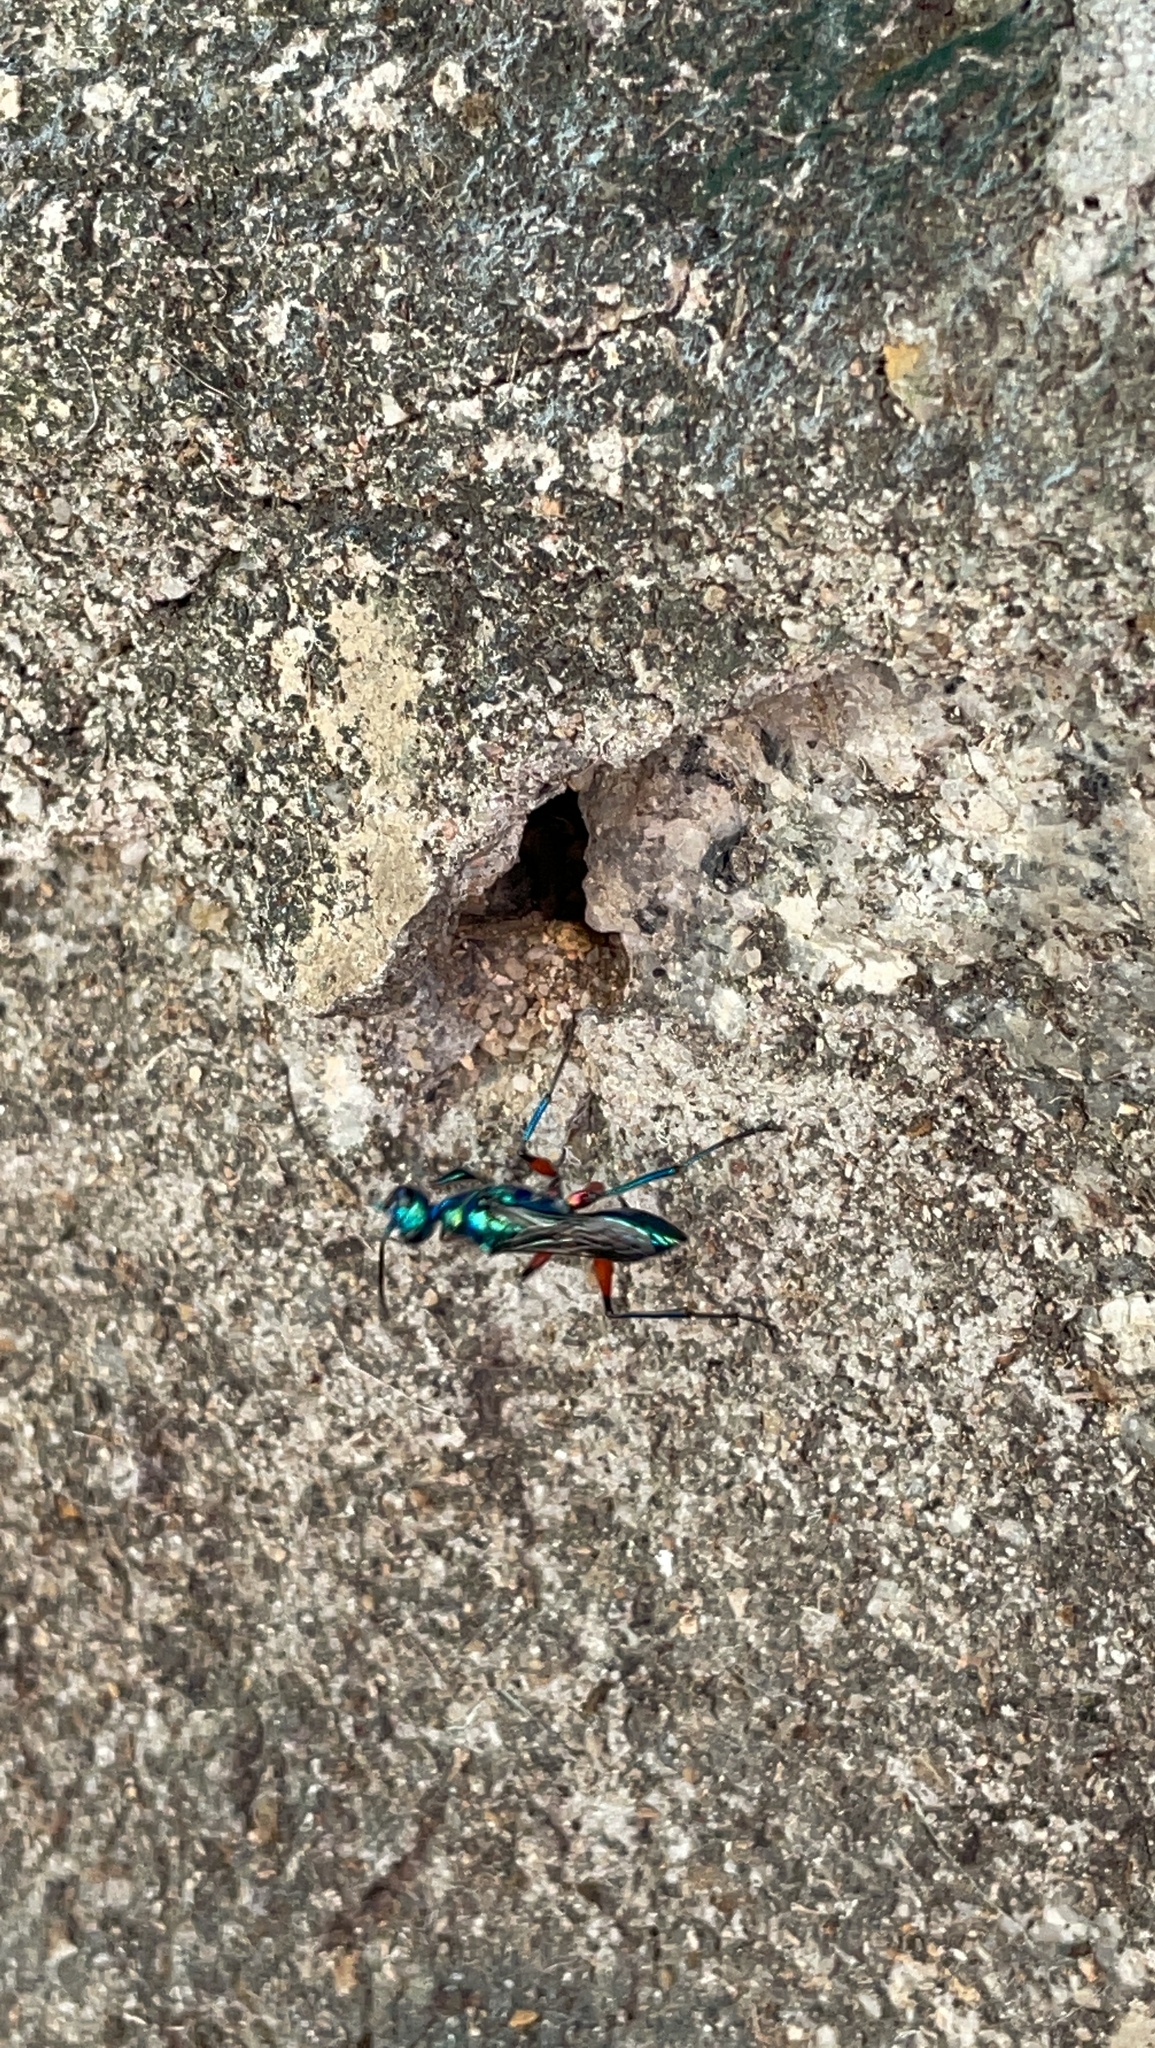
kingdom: Animalia
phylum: Arthropoda
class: Insecta
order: Hymenoptera
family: Ampulicidae
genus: Ampulex
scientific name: Ampulex compressa
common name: Emerald cockroach wasp
